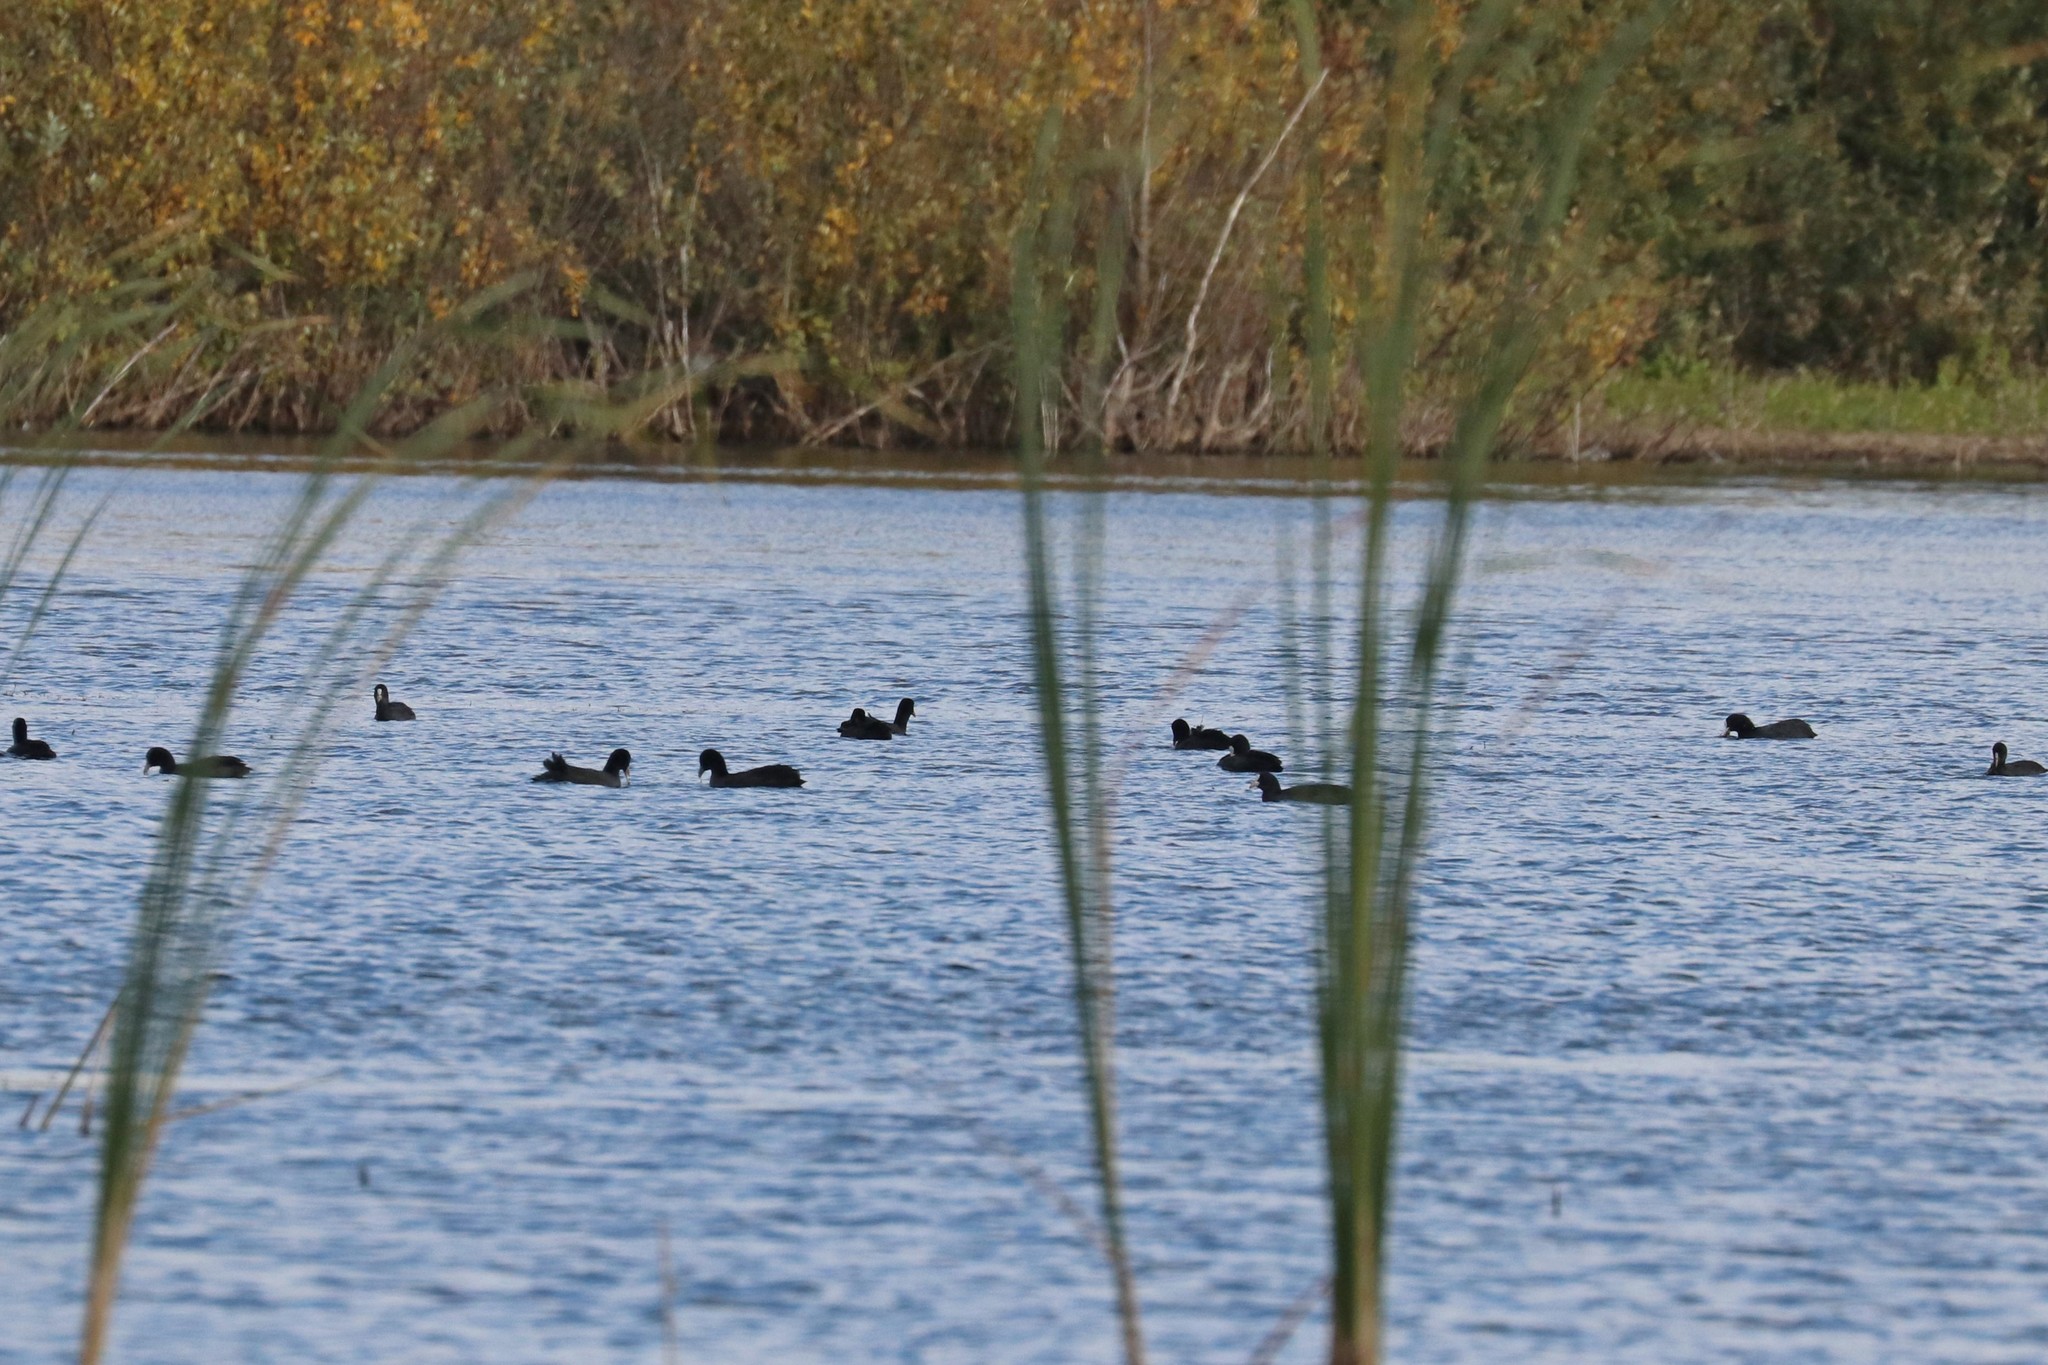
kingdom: Animalia
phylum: Chordata
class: Aves
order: Gruiformes
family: Rallidae
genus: Fulica
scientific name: Fulica atra
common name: Eurasian coot
